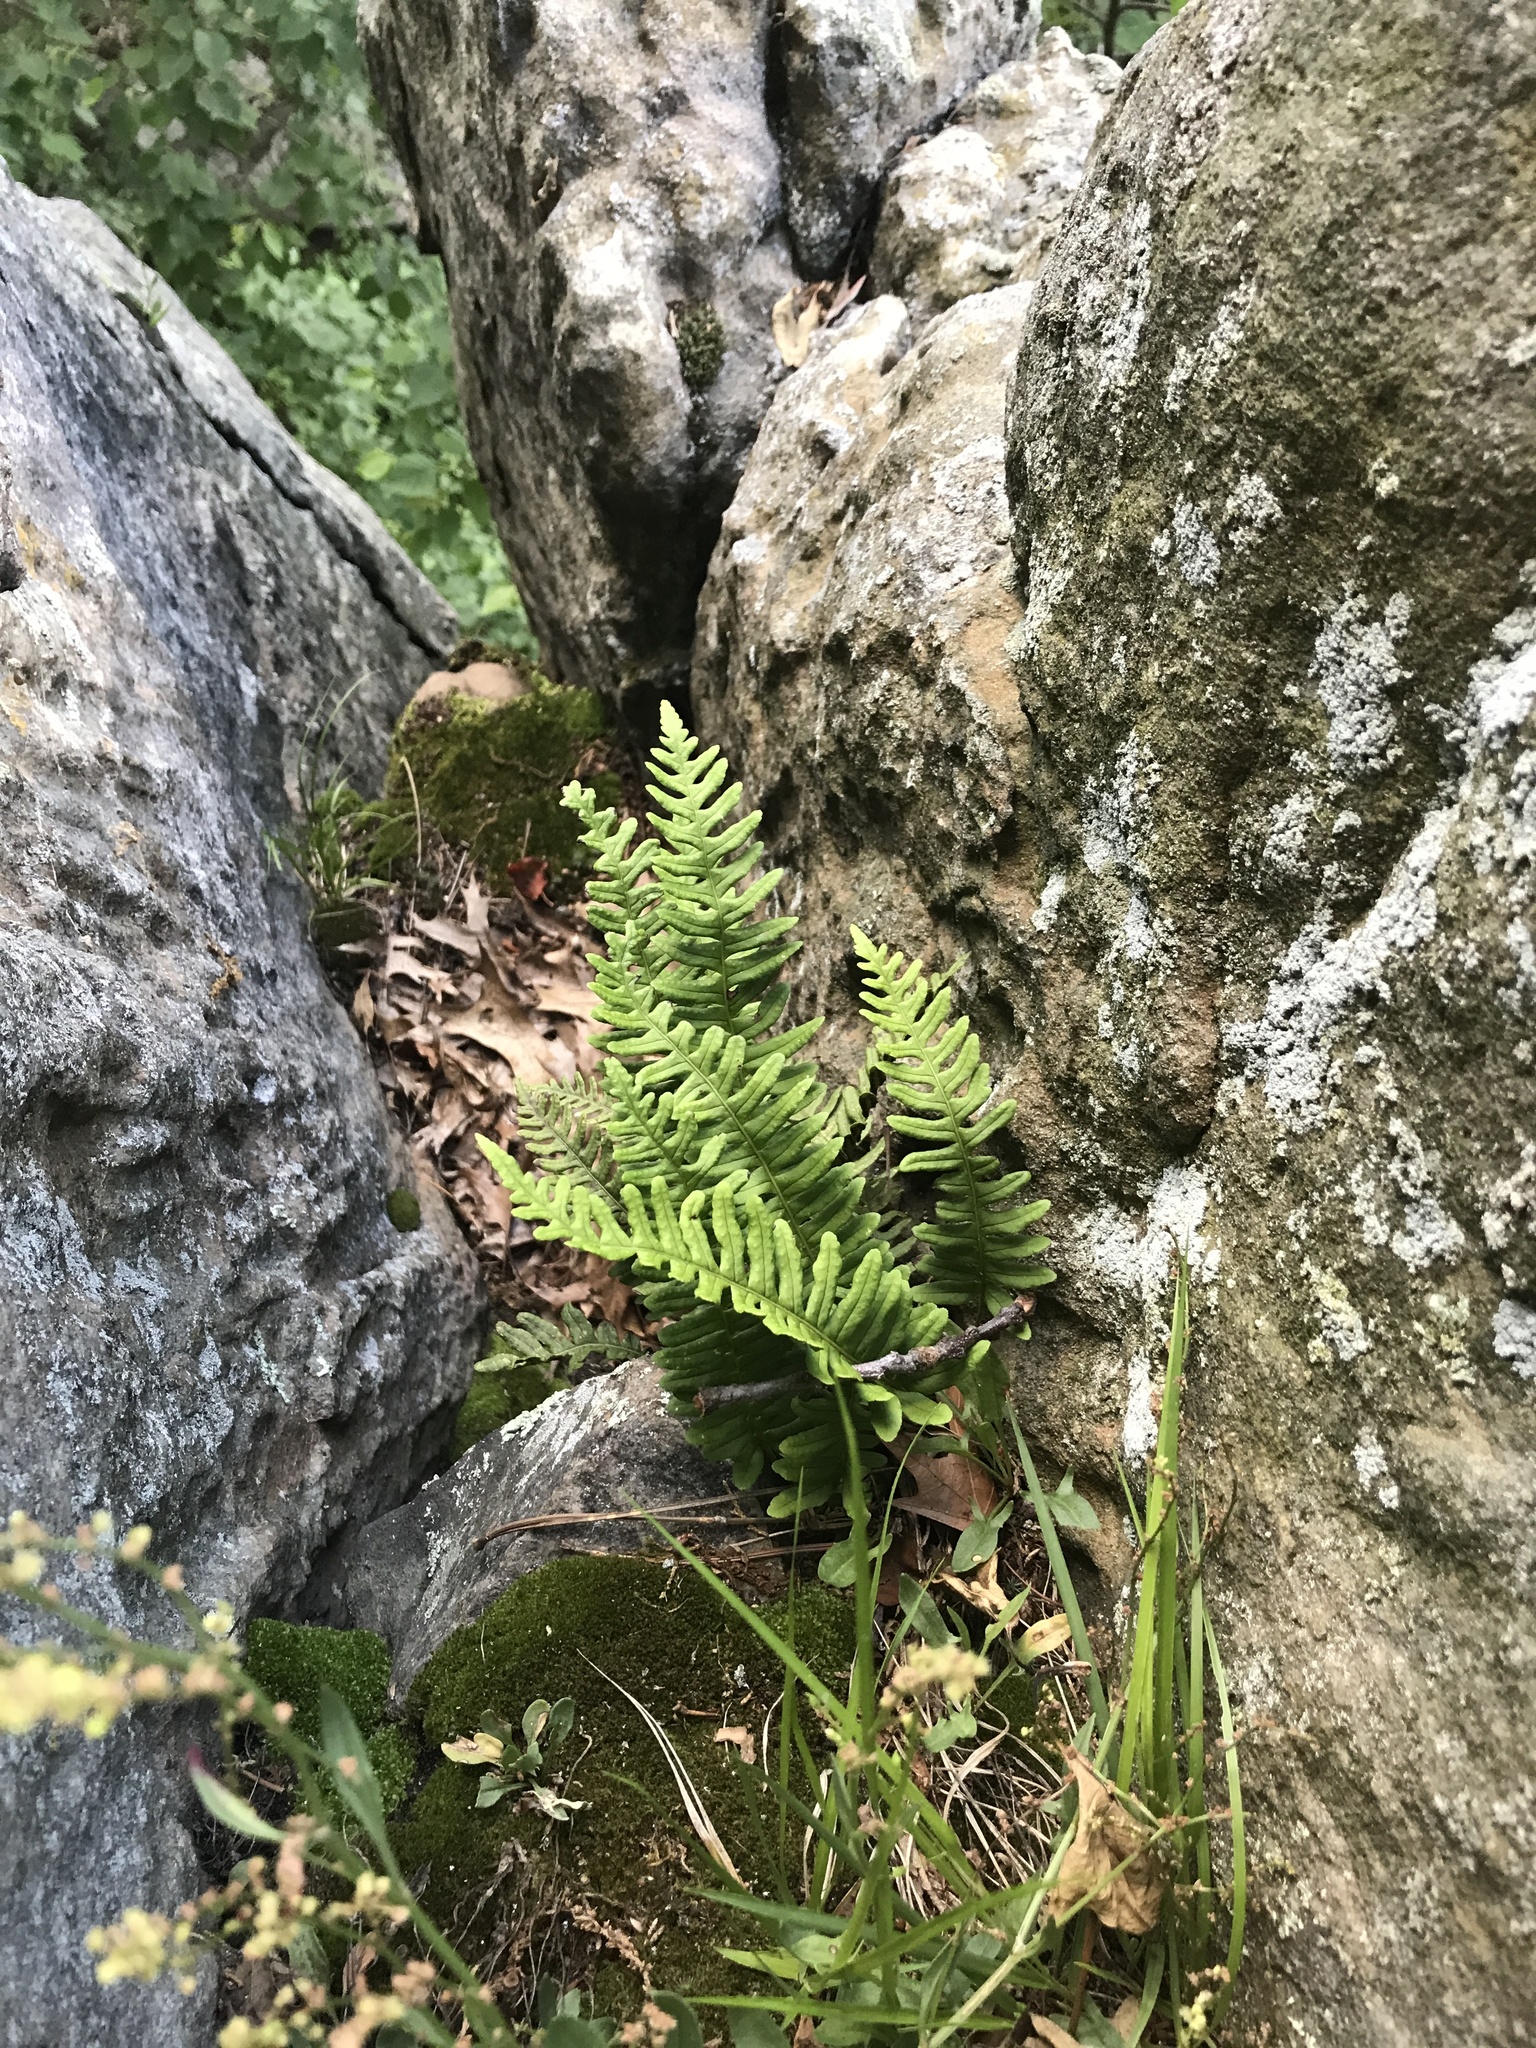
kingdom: Plantae
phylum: Tracheophyta
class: Polypodiopsida
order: Polypodiales
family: Polypodiaceae
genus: Polypodium
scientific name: Polypodium virginianum
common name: American wall fern
